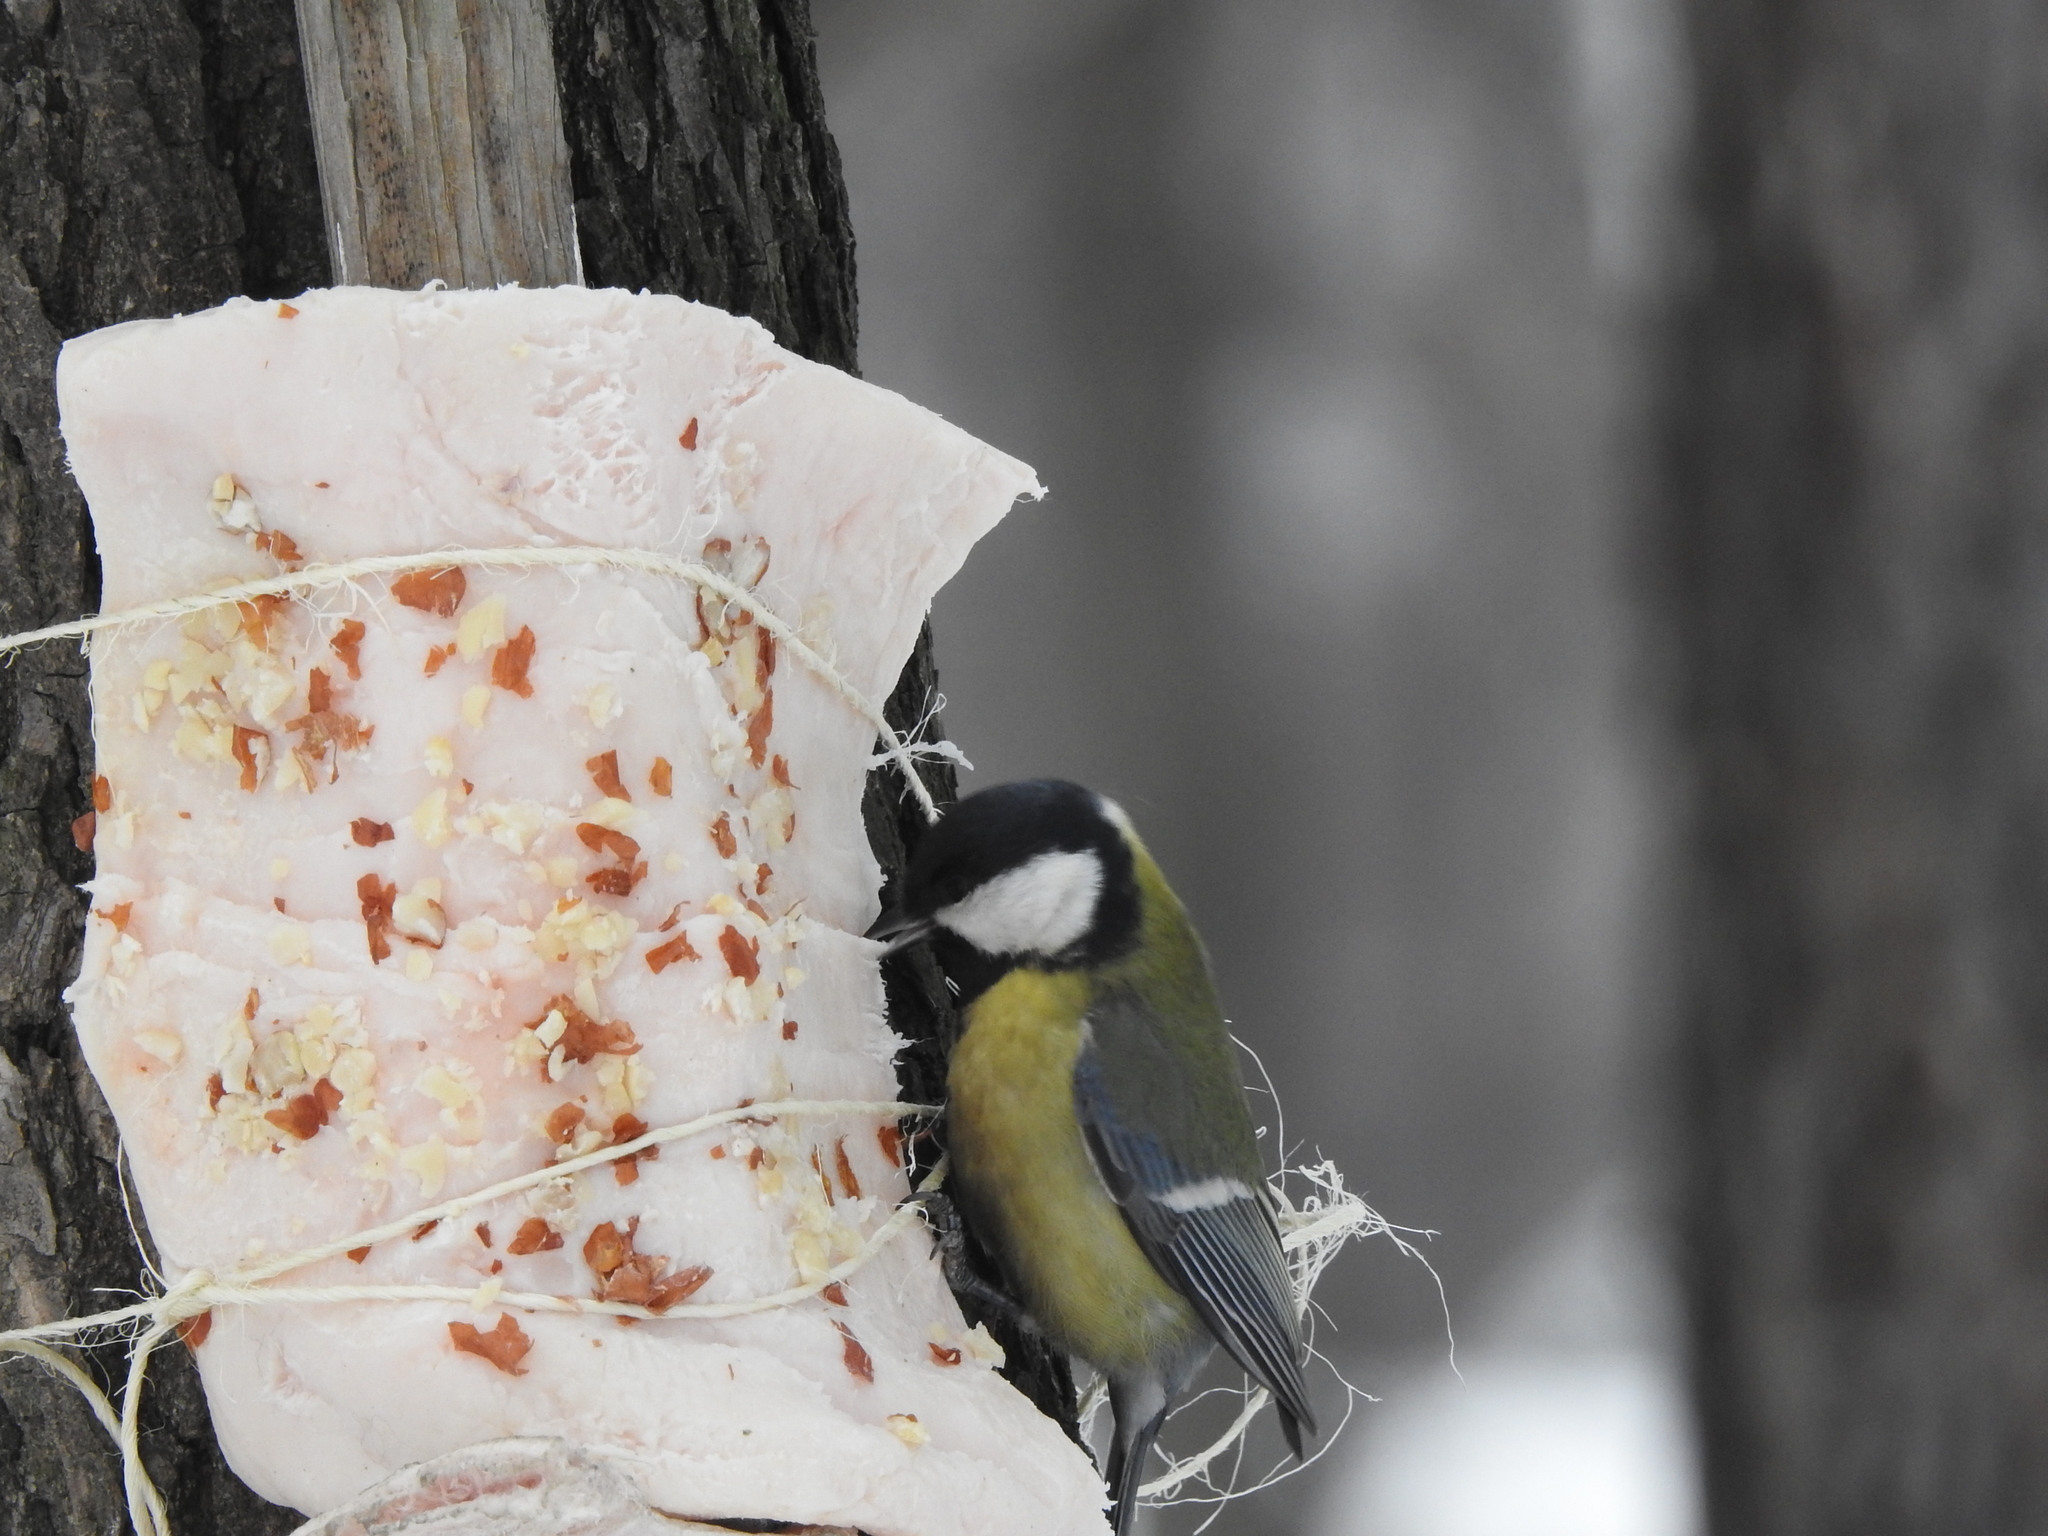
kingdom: Animalia
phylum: Chordata
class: Aves
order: Passeriformes
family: Paridae
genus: Parus
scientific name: Parus major
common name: Great tit
